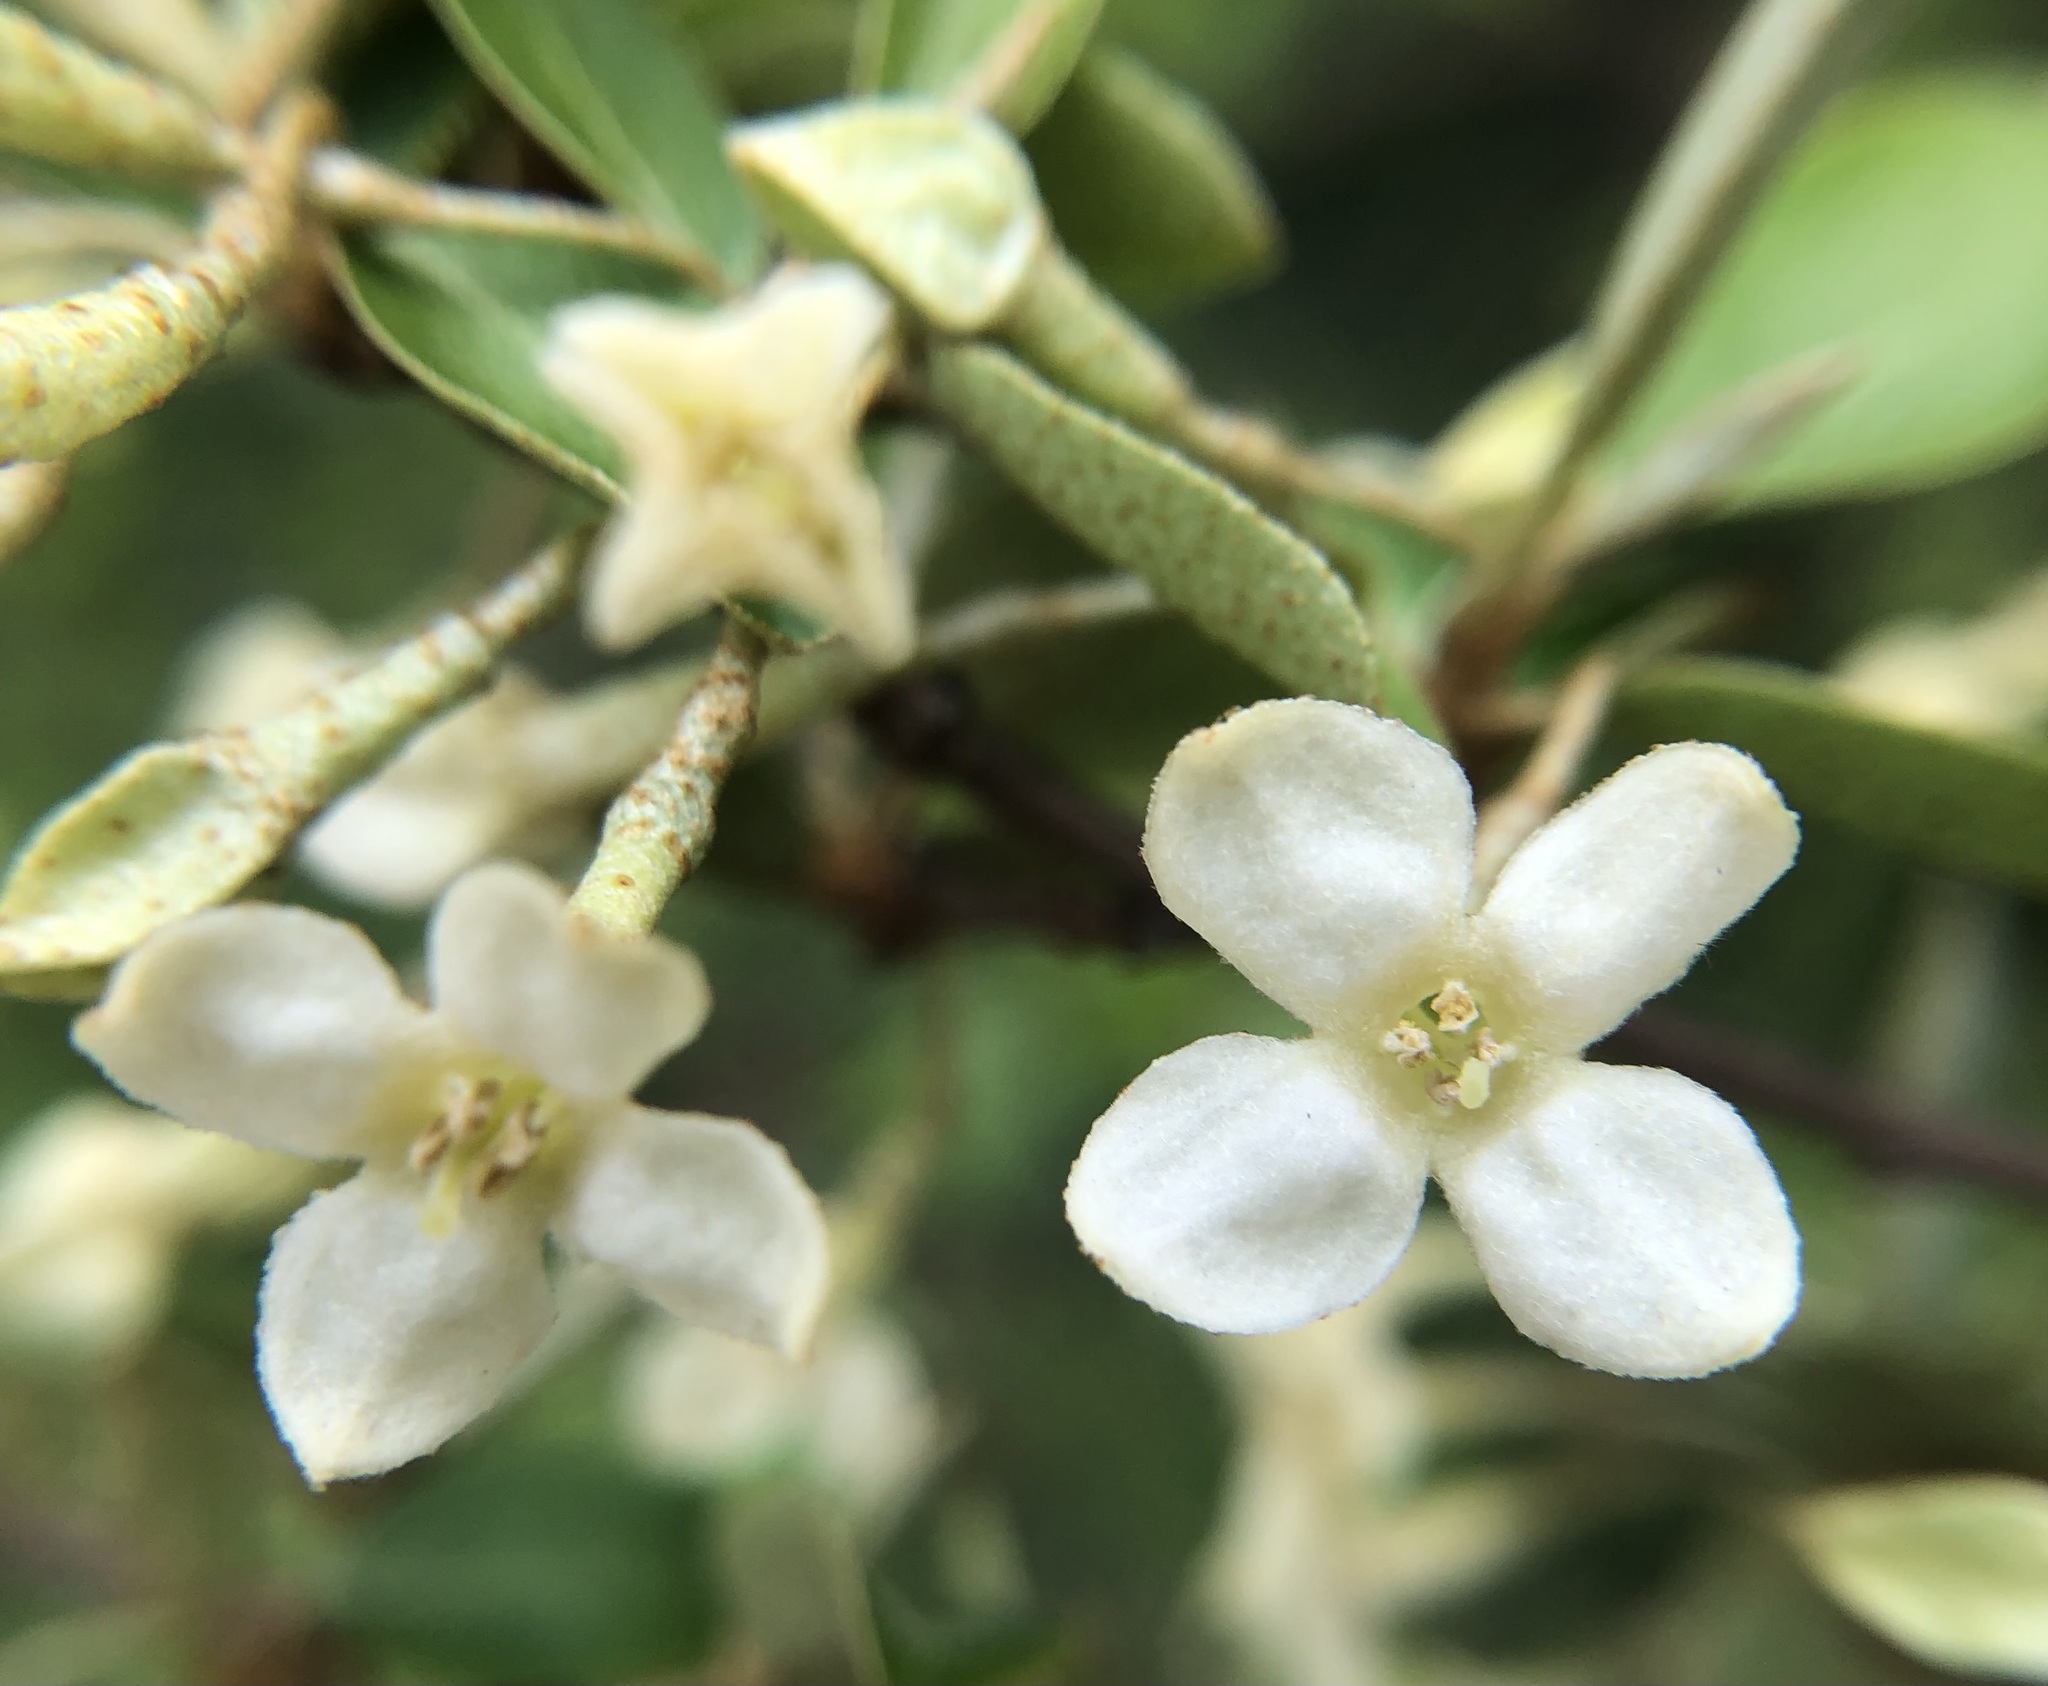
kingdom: Plantae
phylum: Tracheophyta
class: Magnoliopsida
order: Rosales
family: Elaeagnaceae
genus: Elaeagnus
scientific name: Elaeagnus umbellata
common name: Autumn olive
